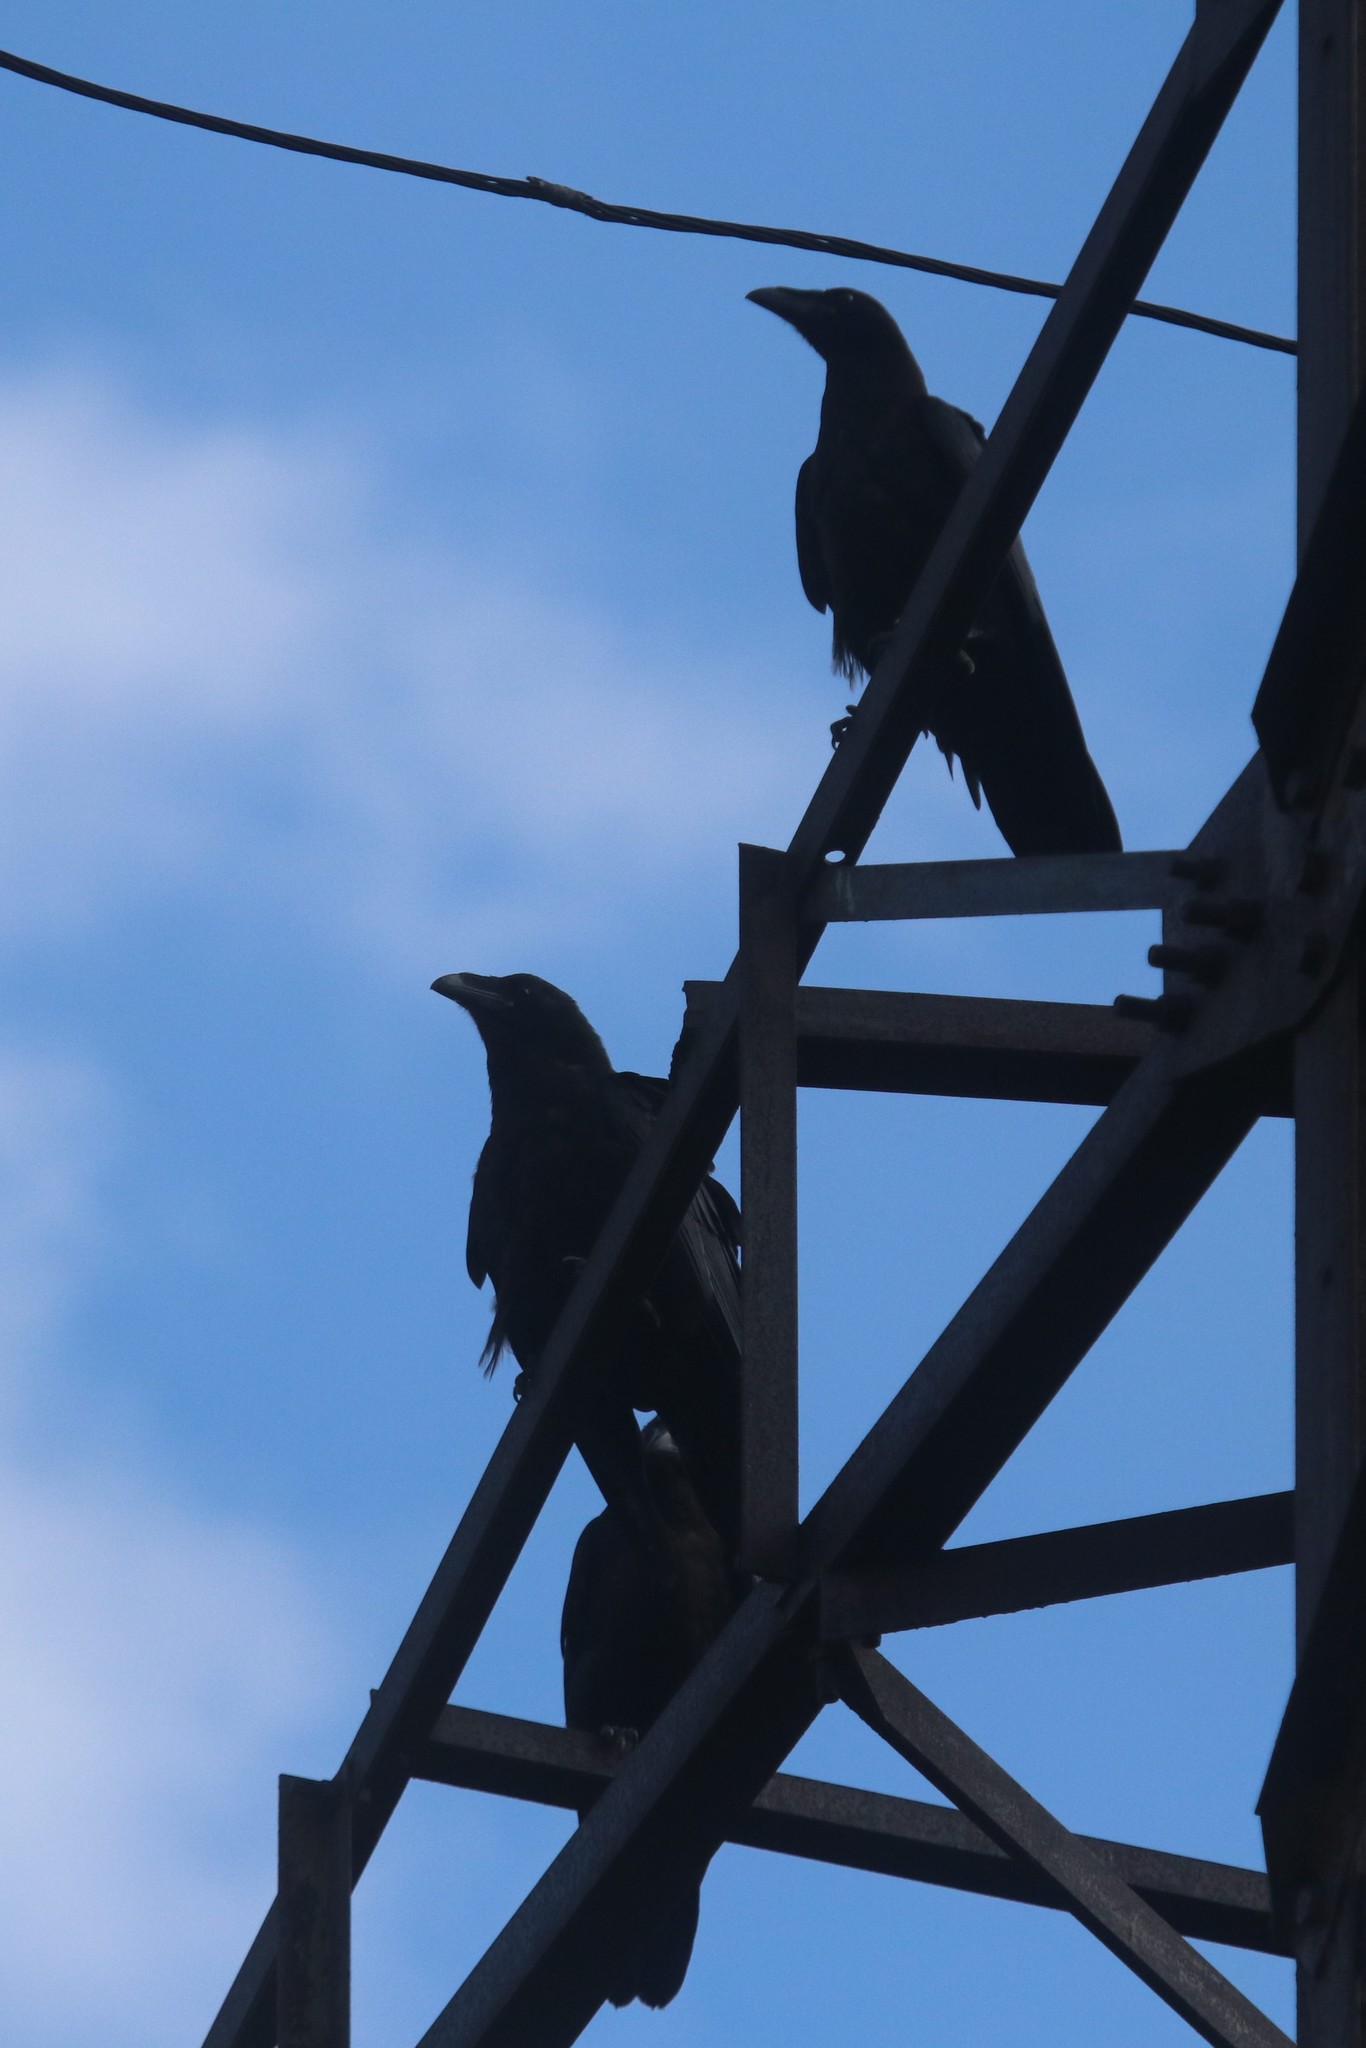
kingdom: Animalia
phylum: Chordata
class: Aves
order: Passeriformes
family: Corvidae
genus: Corvus
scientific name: Corvus corax
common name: Common raven
